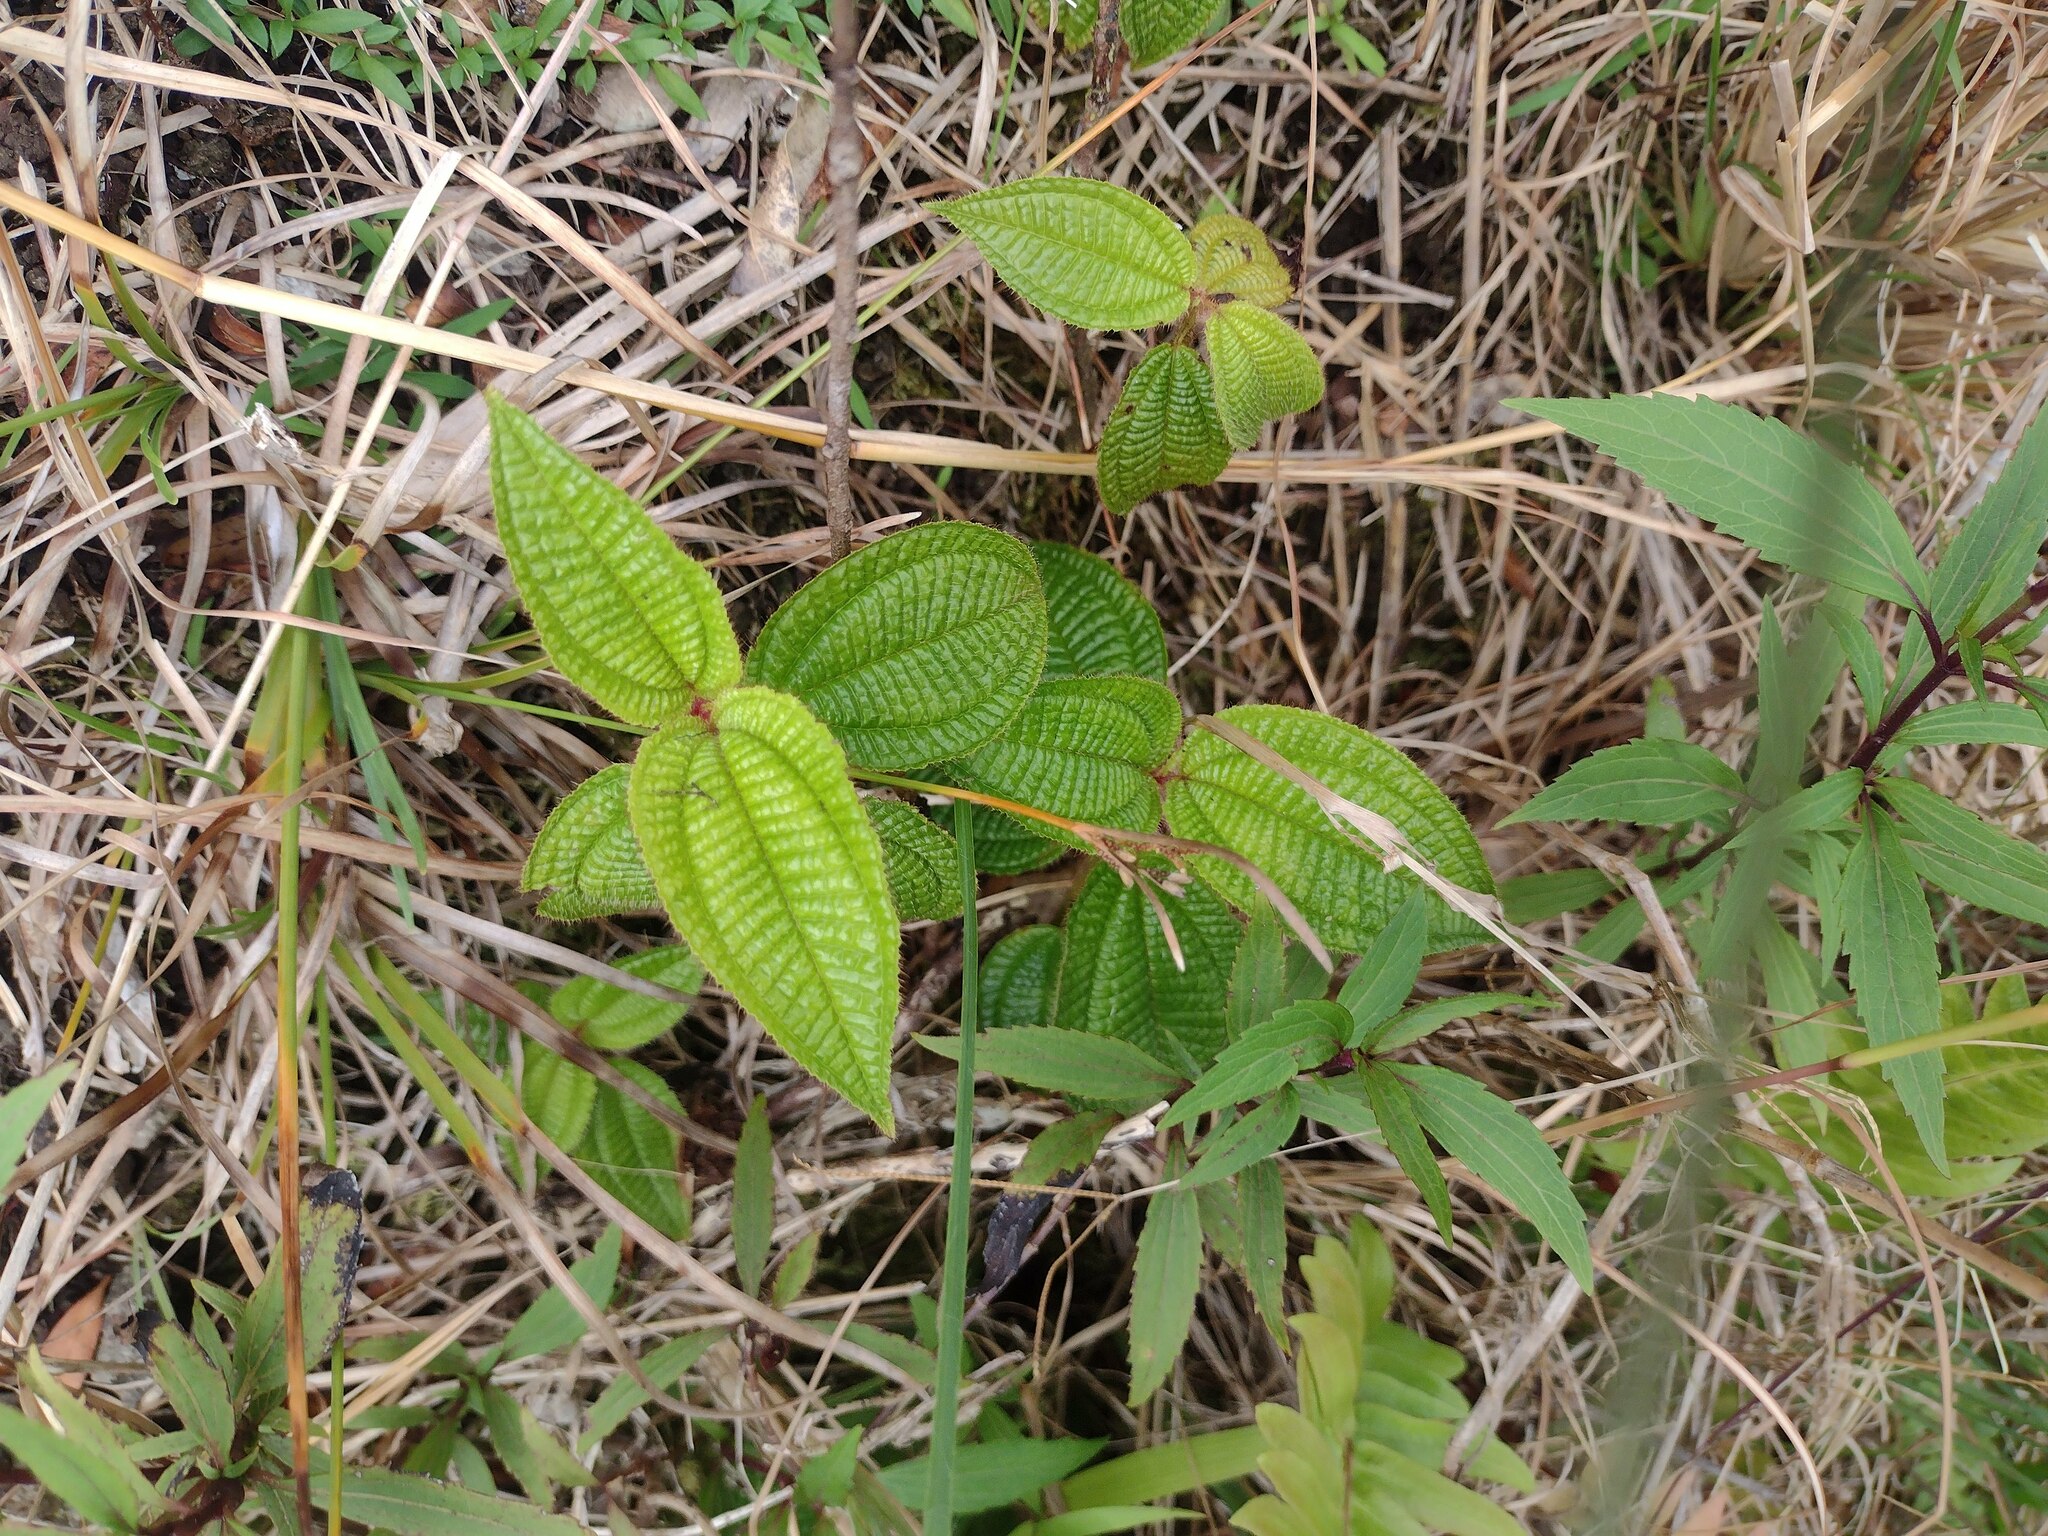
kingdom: Plantae
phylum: Tracheophyta
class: Magnoliopsida
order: Myrtales
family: Melastomataceae
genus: Miconia
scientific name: Miconia crenata
